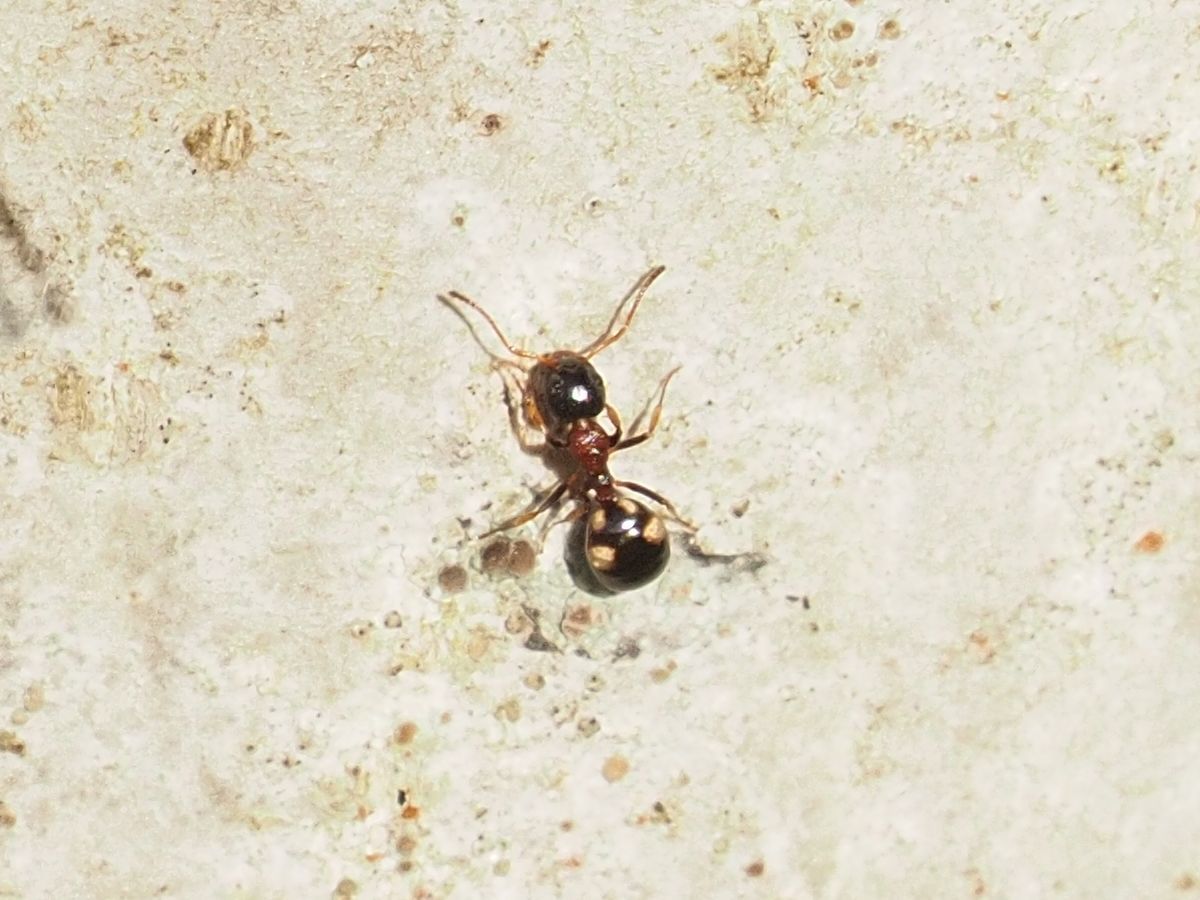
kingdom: Animalia
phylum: Arthropoda
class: Insecta
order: Hymenoptera
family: Formicidae
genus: Dolichoderus
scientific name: Dolichoderus quadripunctatus
